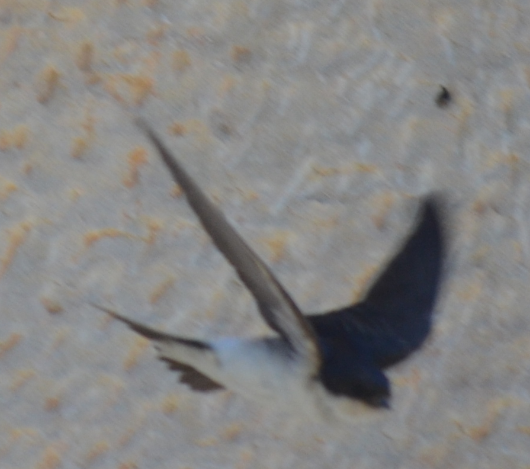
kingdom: Animalia
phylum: Chordata
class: Aves
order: Passeriformes
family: Hirundinidae
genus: Delichon
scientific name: Delichon urbicum
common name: Common house martin
